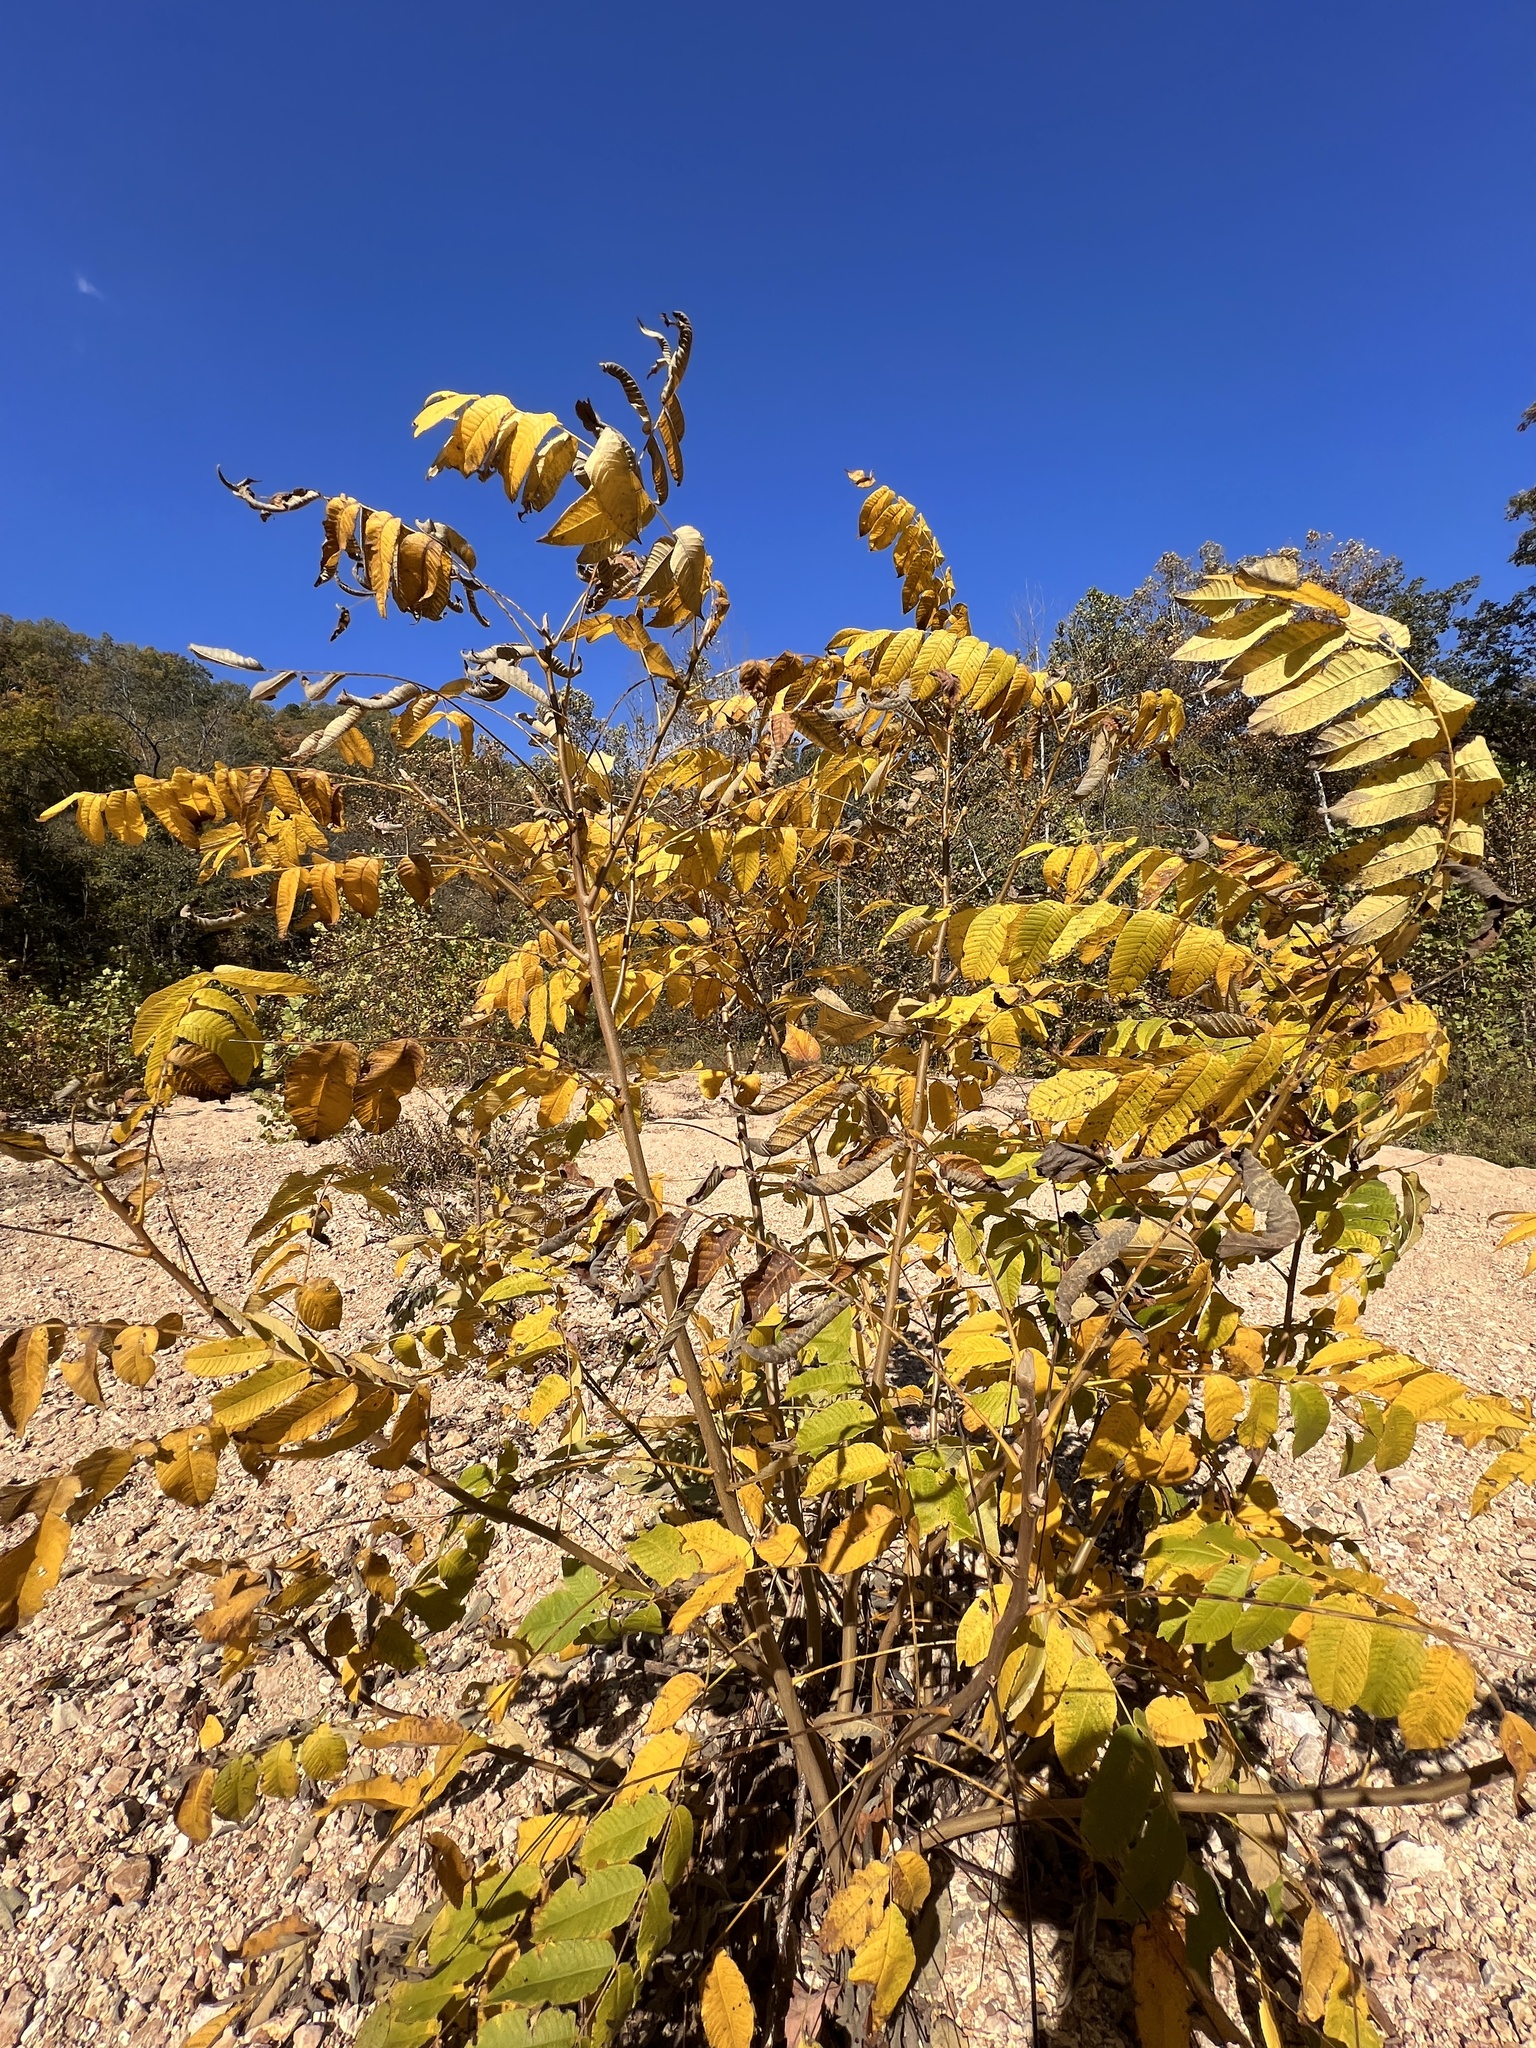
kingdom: Plantae
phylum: Tracheophyta
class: Magnoliopsida
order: Fagales
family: Juglandaceae
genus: Juglans
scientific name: Juglans cinerea
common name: Butternut
